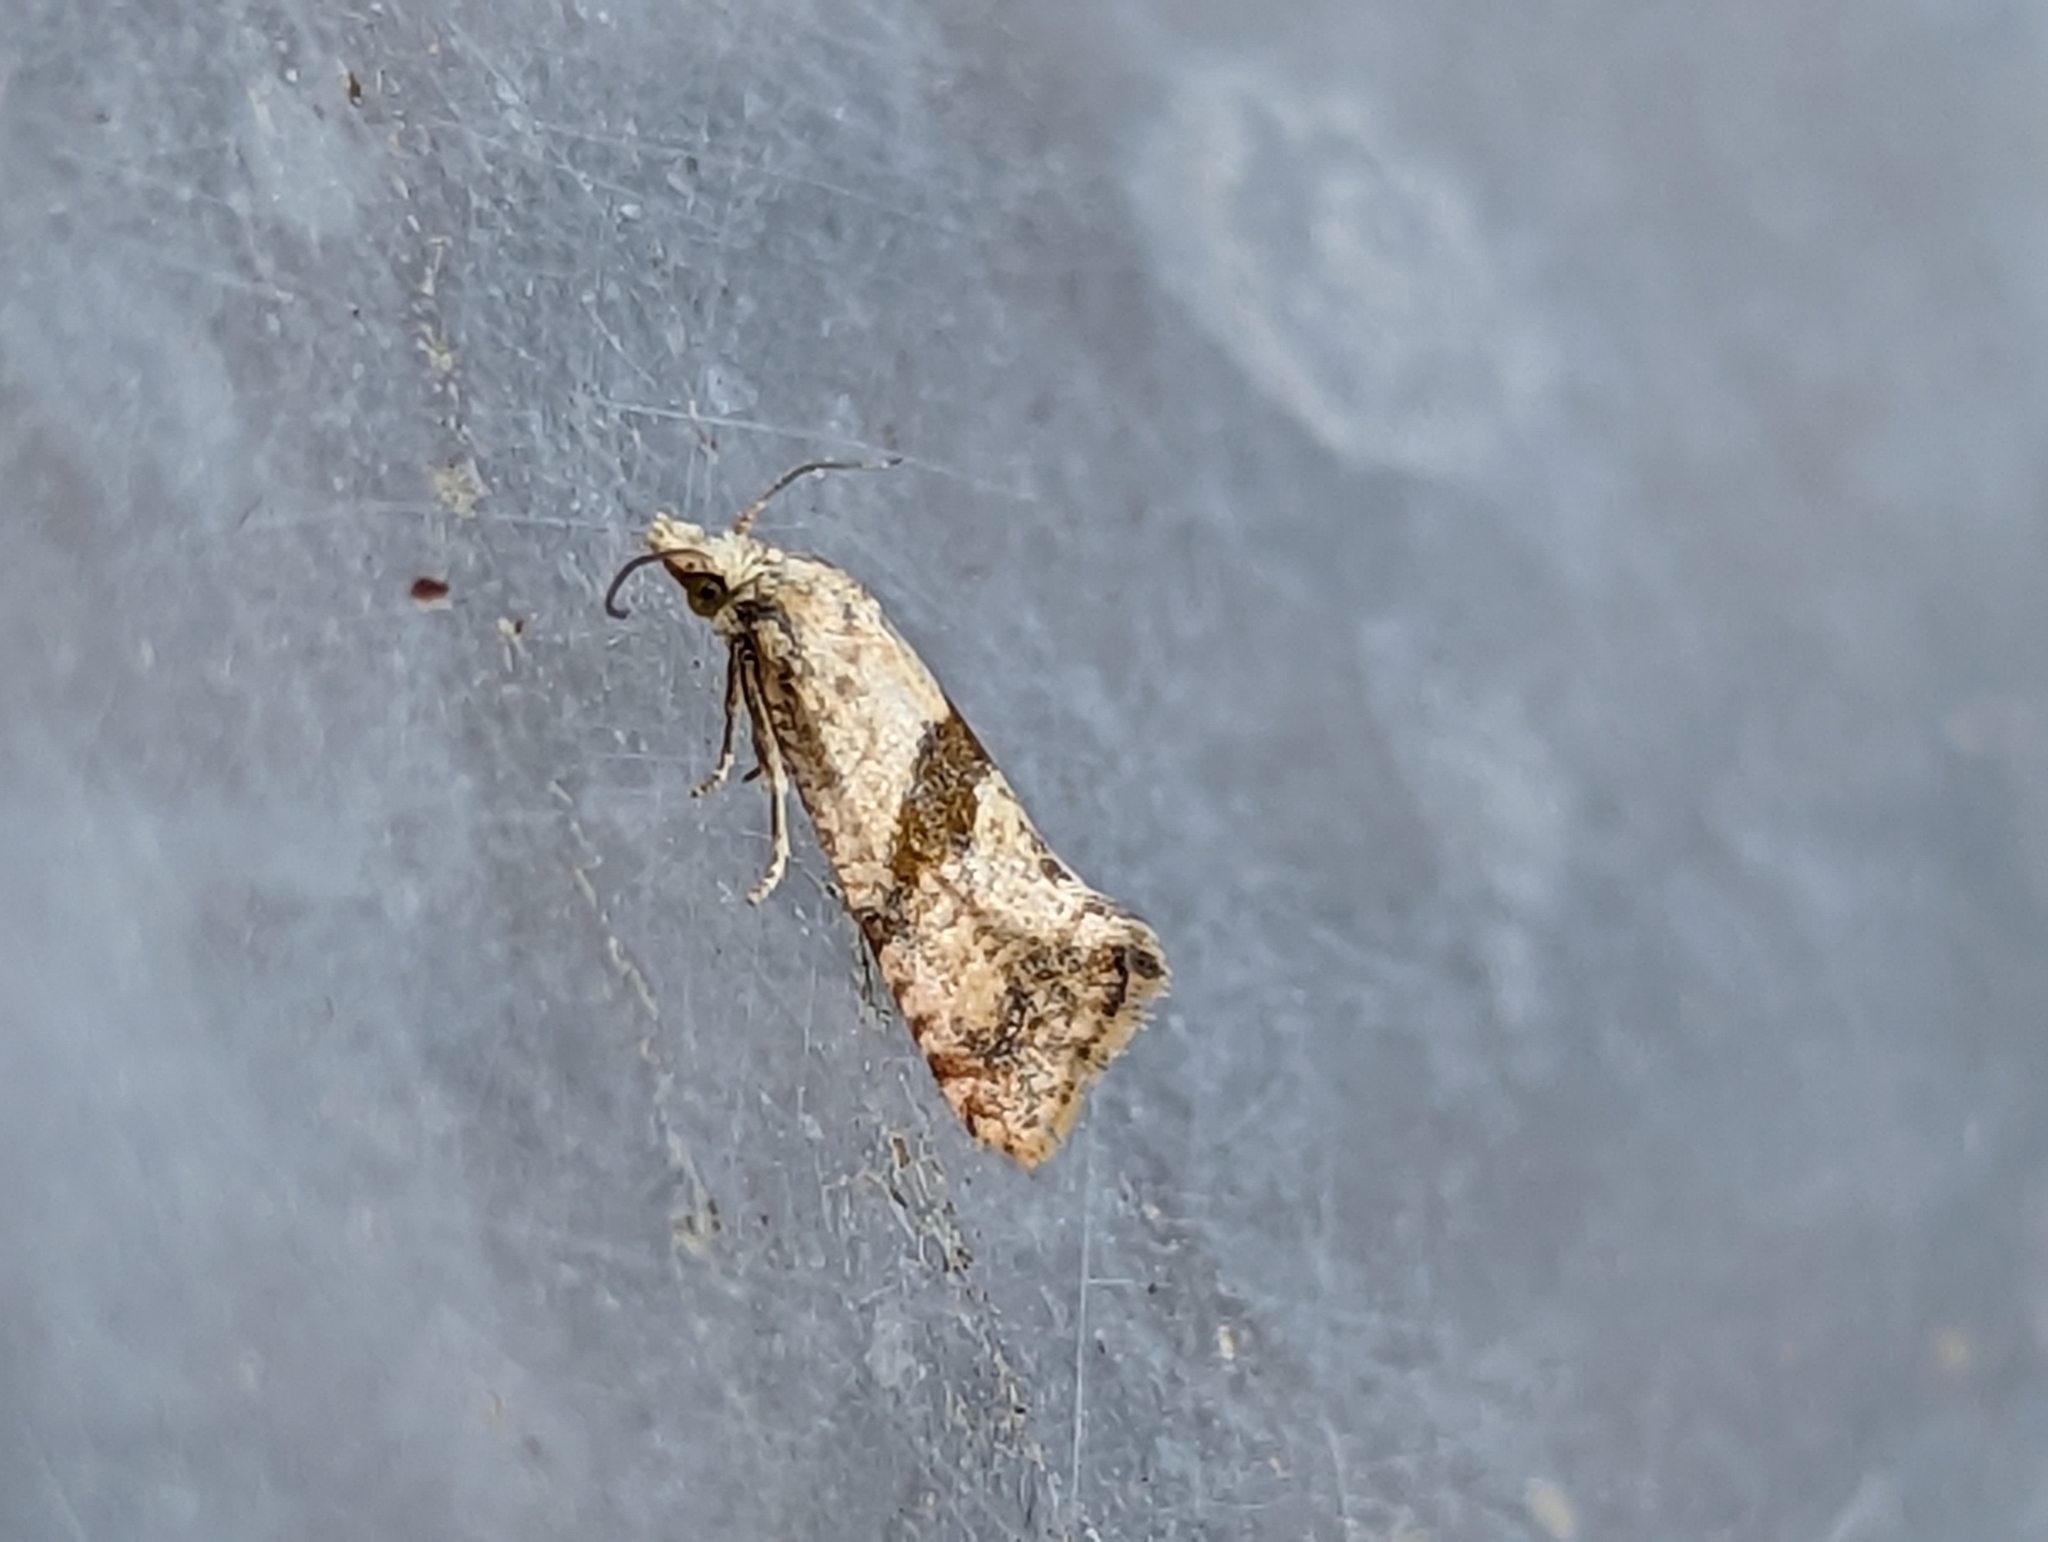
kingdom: Animalia
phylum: Arthropoda
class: Insecta
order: Lepidoptera
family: Tortricidae
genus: Cochylidia
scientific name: Cochylidia implicitana
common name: Chamomile conch
